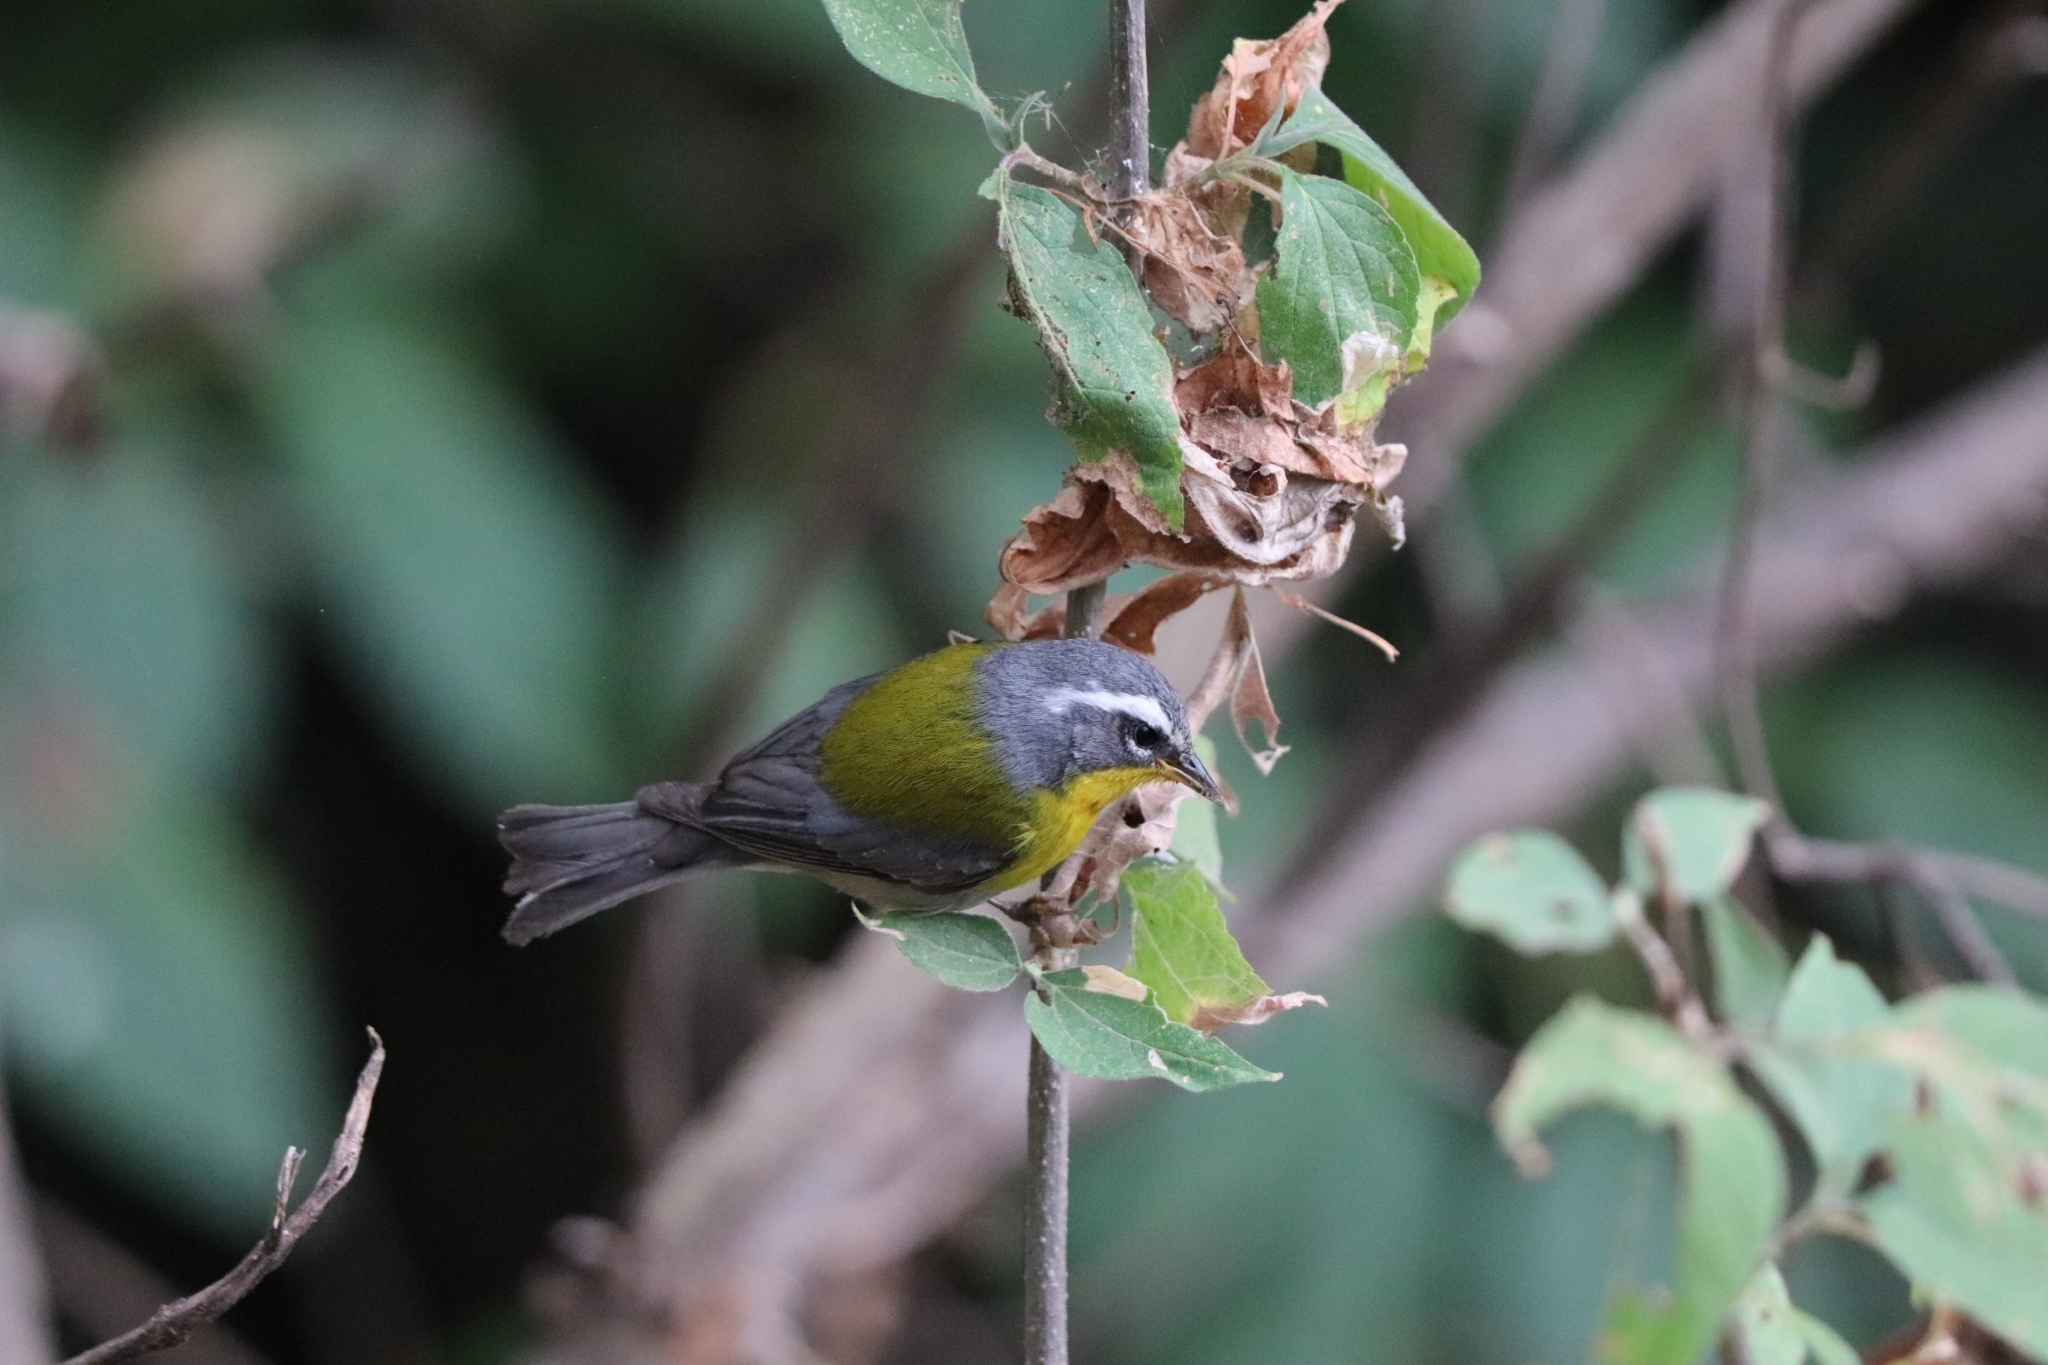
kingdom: Animalia
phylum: Chordata
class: Aves
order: Passeriformes
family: Parulidae
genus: Oreothlypis
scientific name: Oreothlypis superciliosa
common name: Crescent-chested warbler
